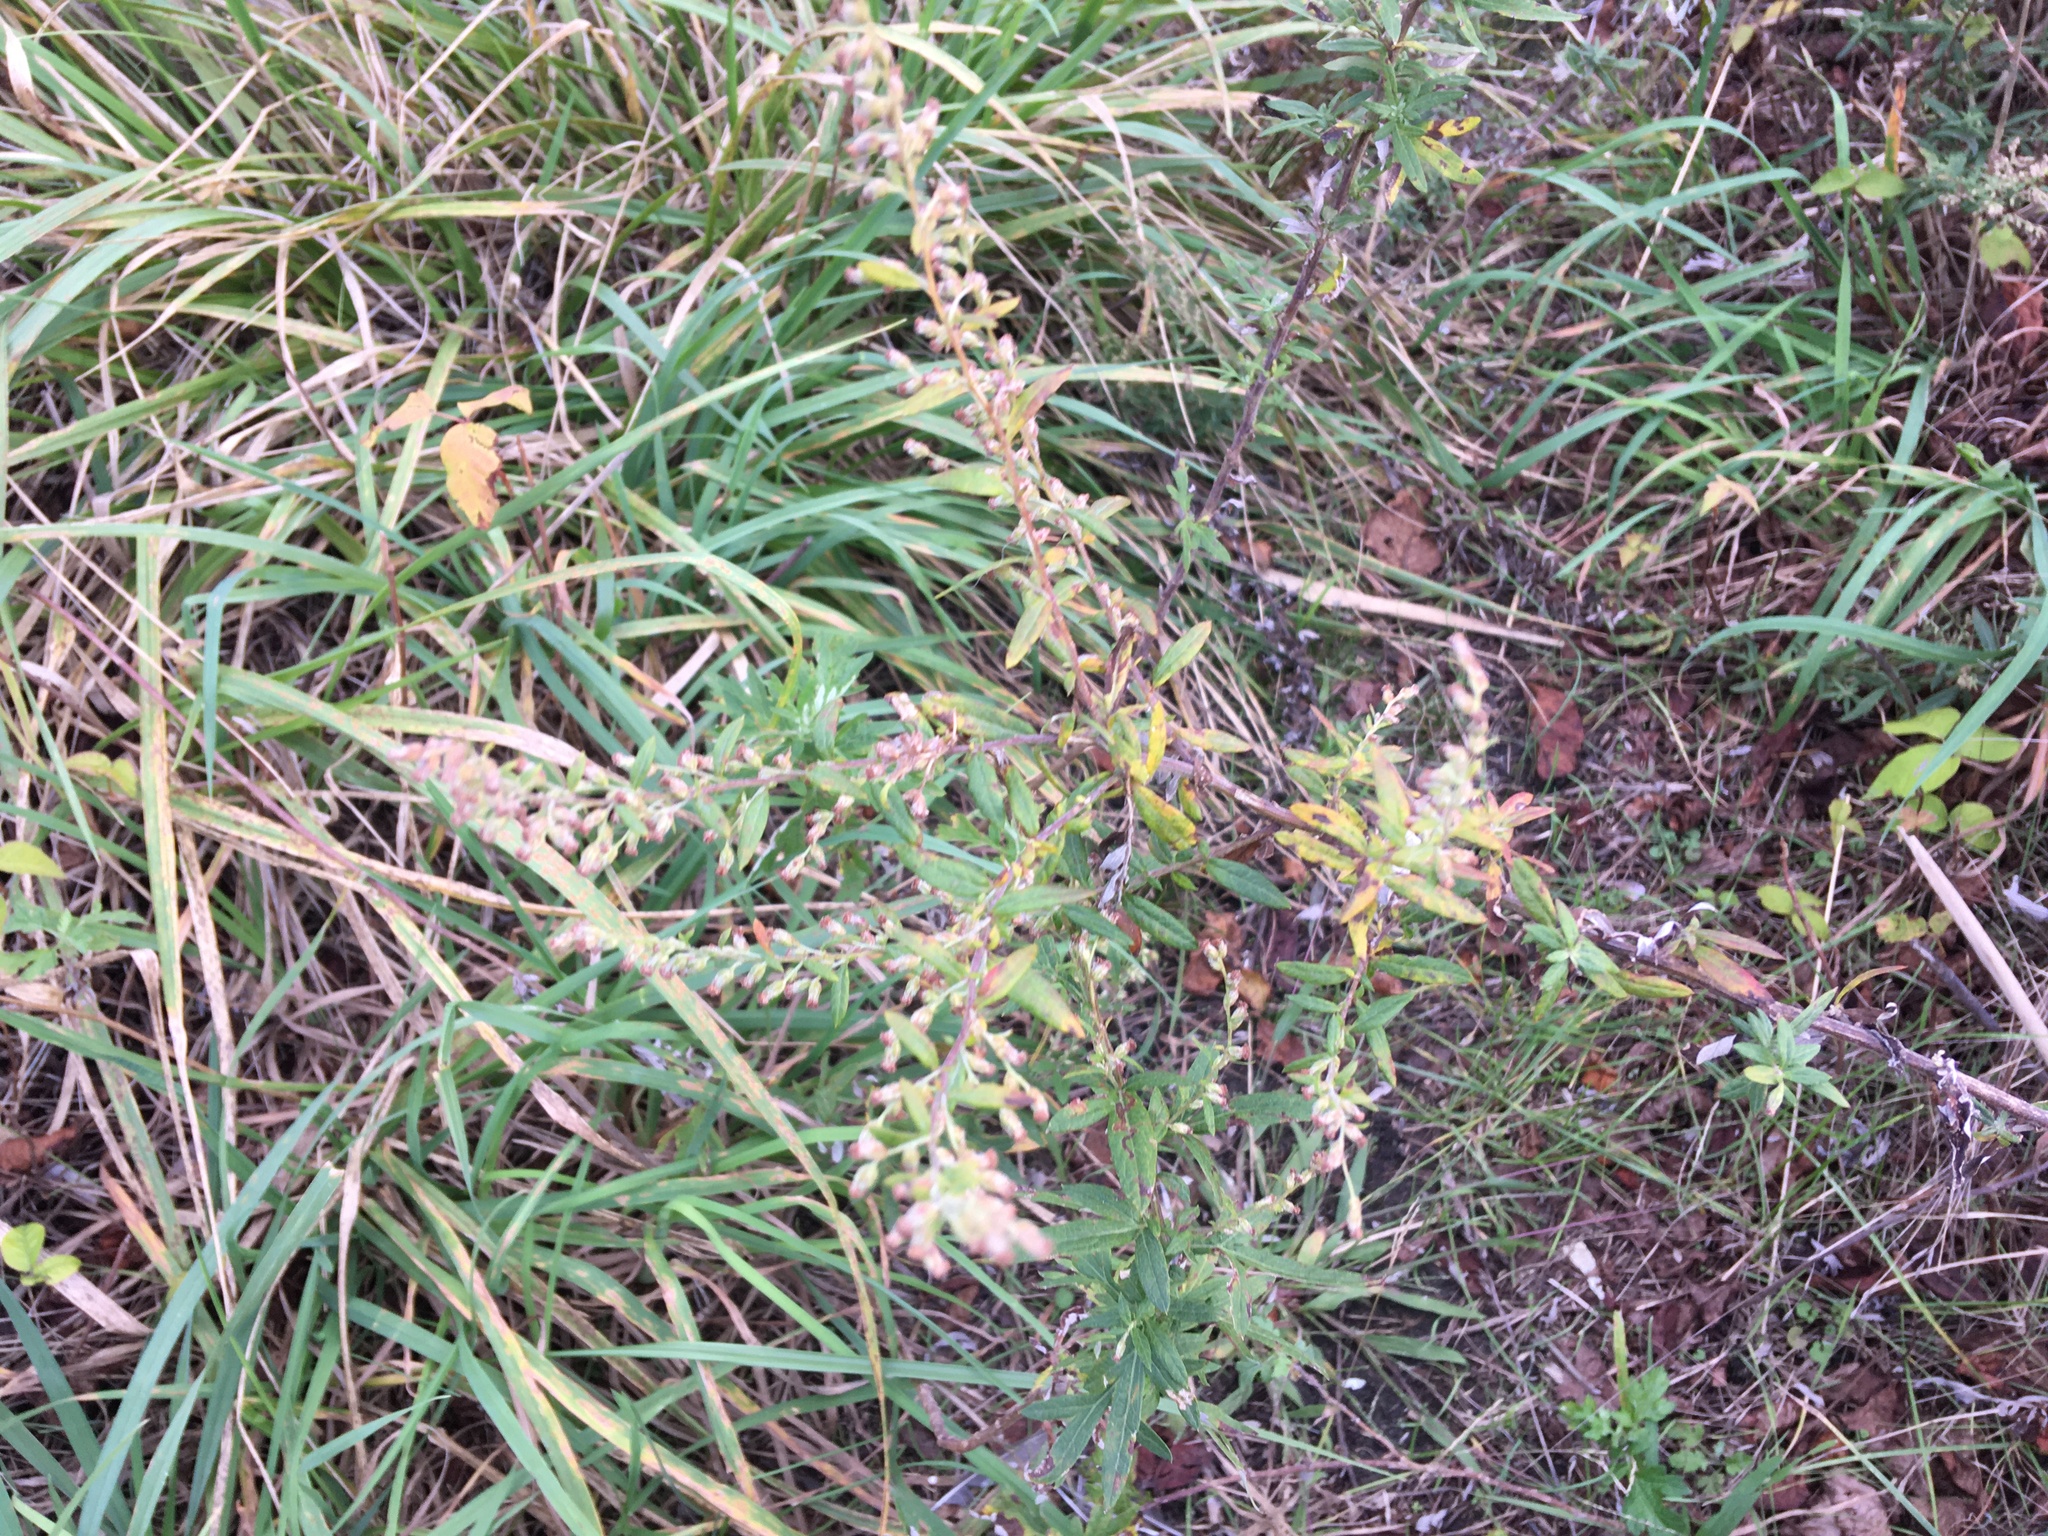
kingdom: Plantae
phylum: Tracheophyta
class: Magnoliopsida
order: Asterales
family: Asteraceae
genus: Artemisia
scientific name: Artemisia vulgaris
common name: Mugwort
